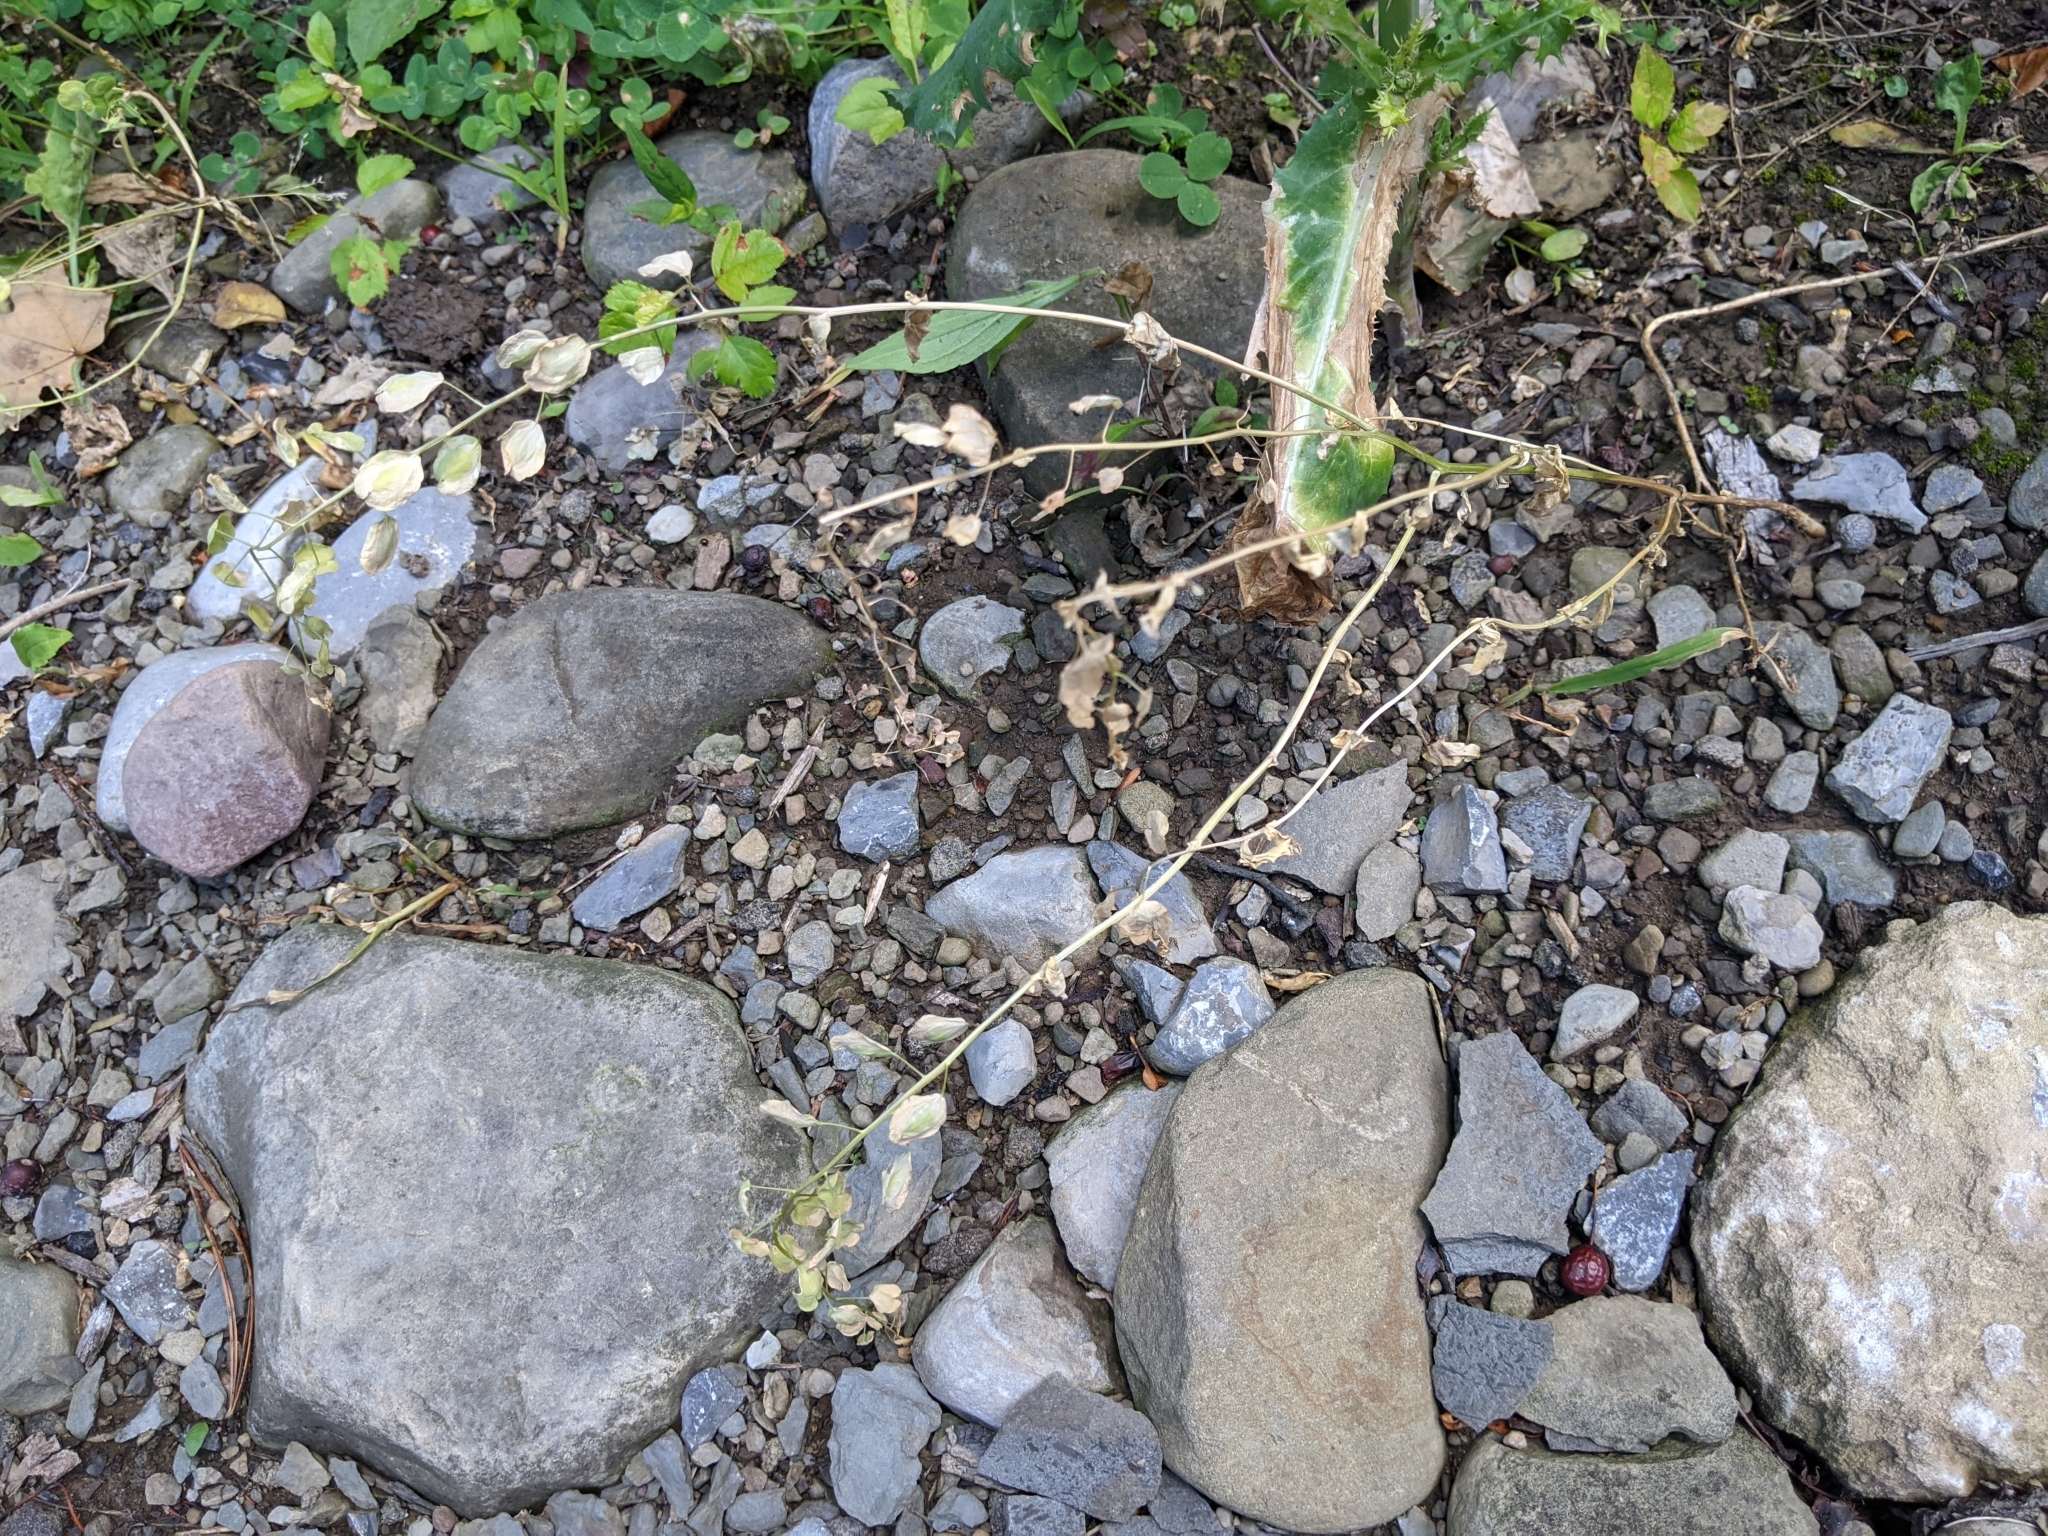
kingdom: Plantae
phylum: Tracheophyta
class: Magnoliopsida
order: Brassicales
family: Brassicaceae
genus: Thlaspi
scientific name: Thlaspi arvense
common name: Field pennycress
